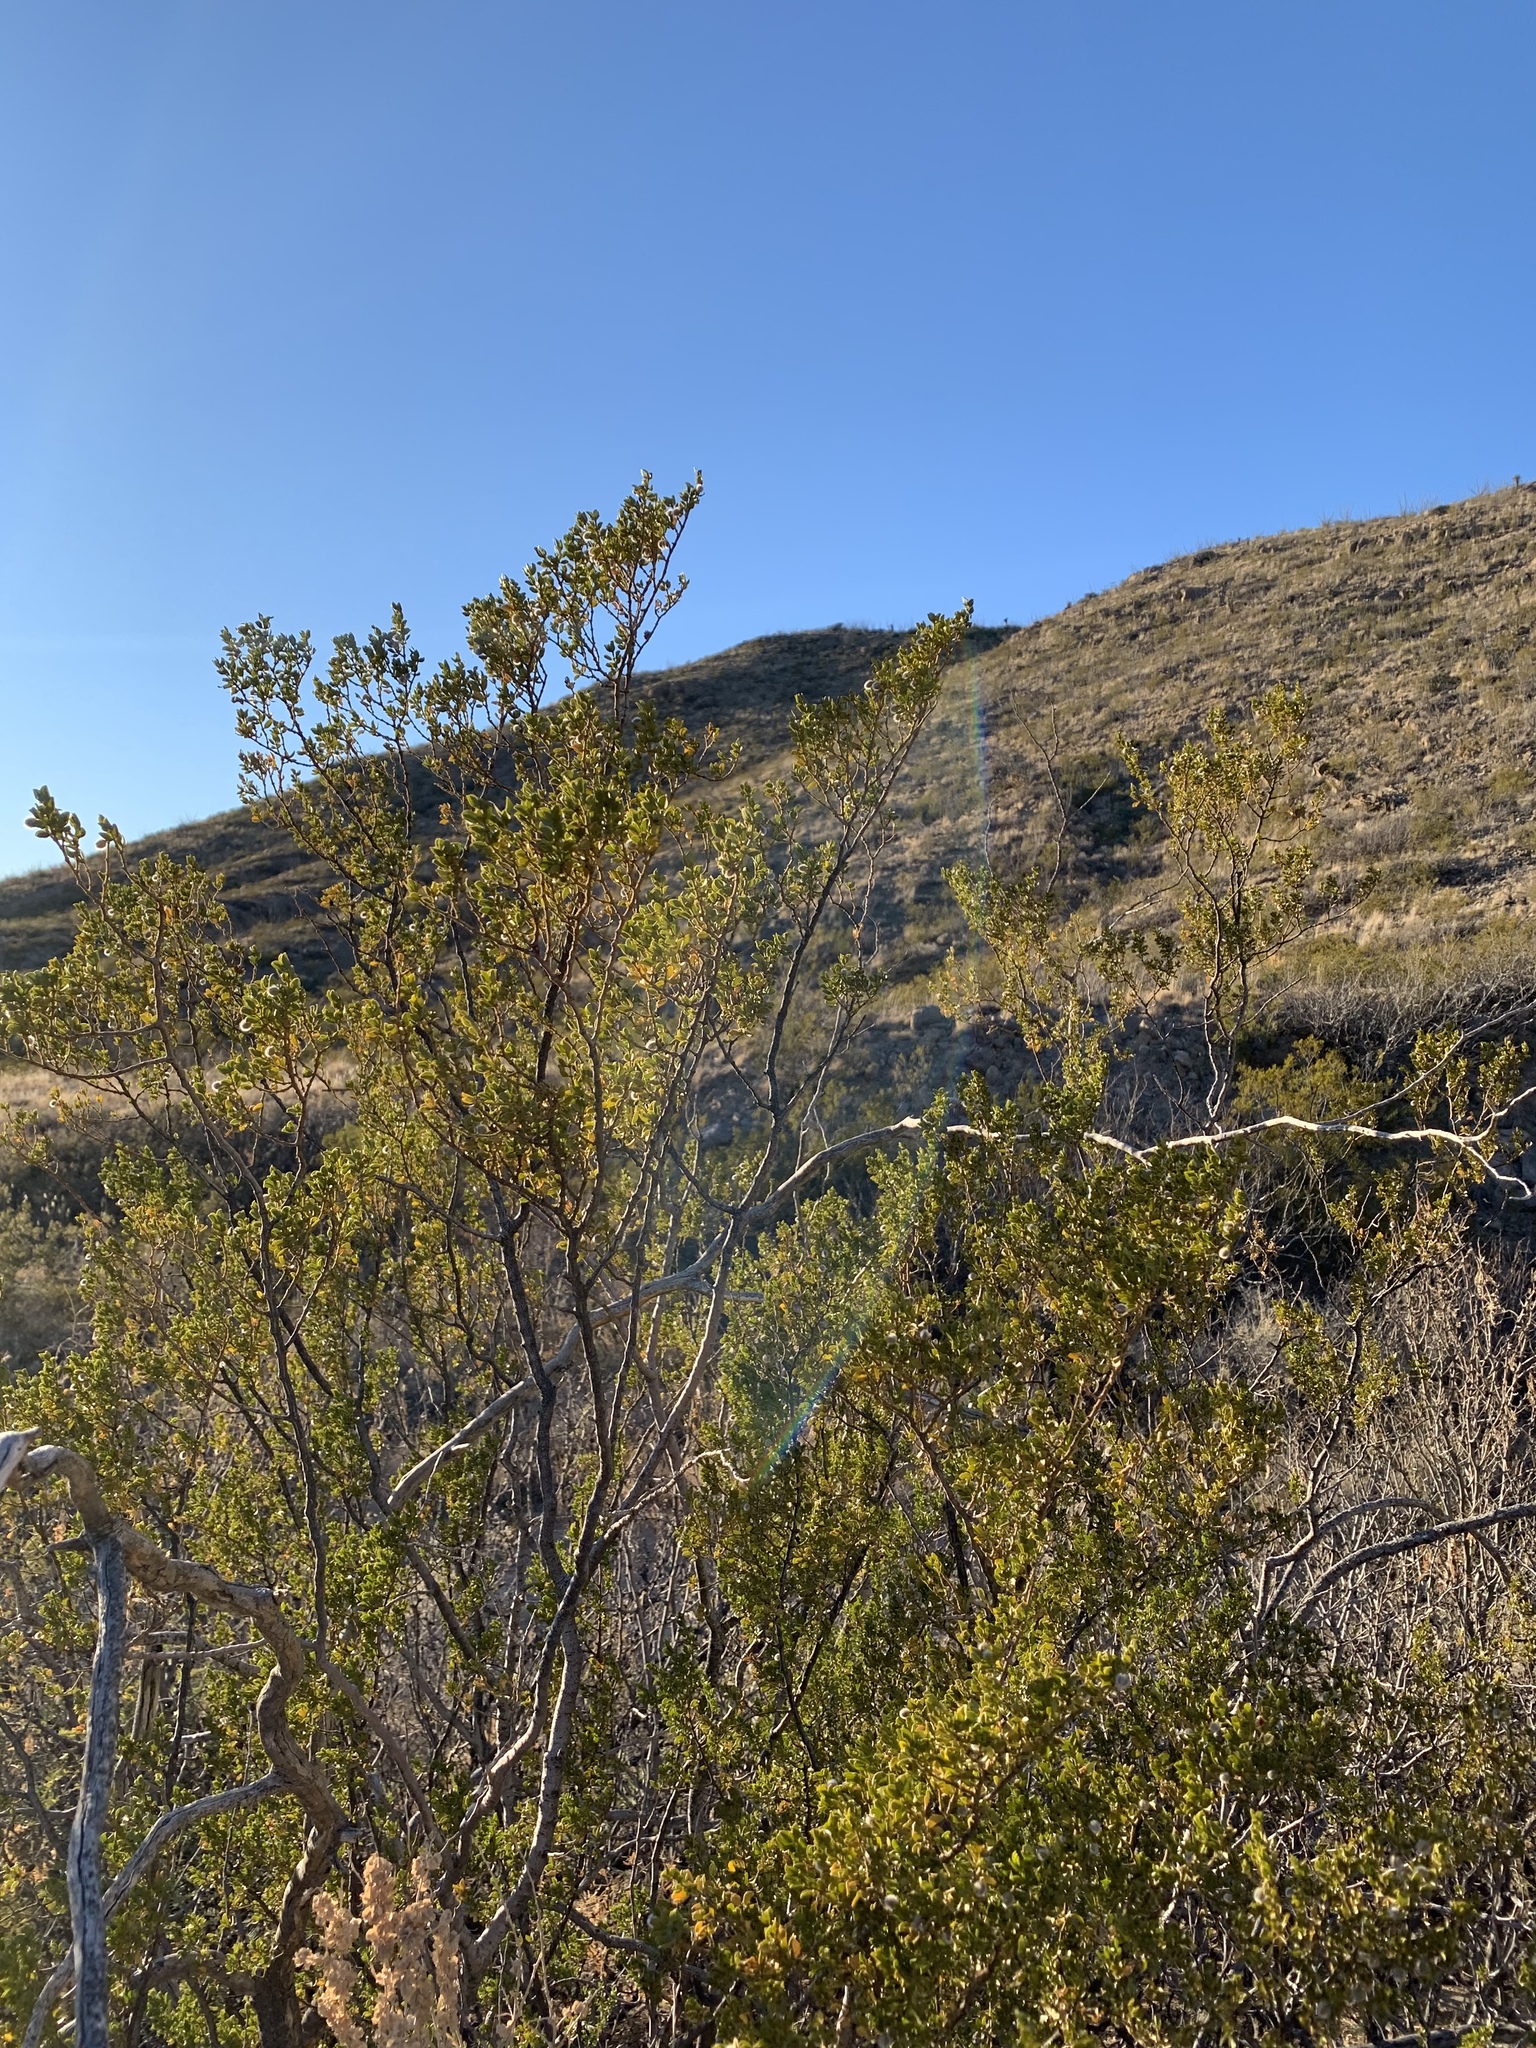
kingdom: Plantae
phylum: Tracheophyta
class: Magnoliopsida
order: Zygophyllales
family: Zygophyllaceae
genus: Larrea
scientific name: Larrea tridentata
